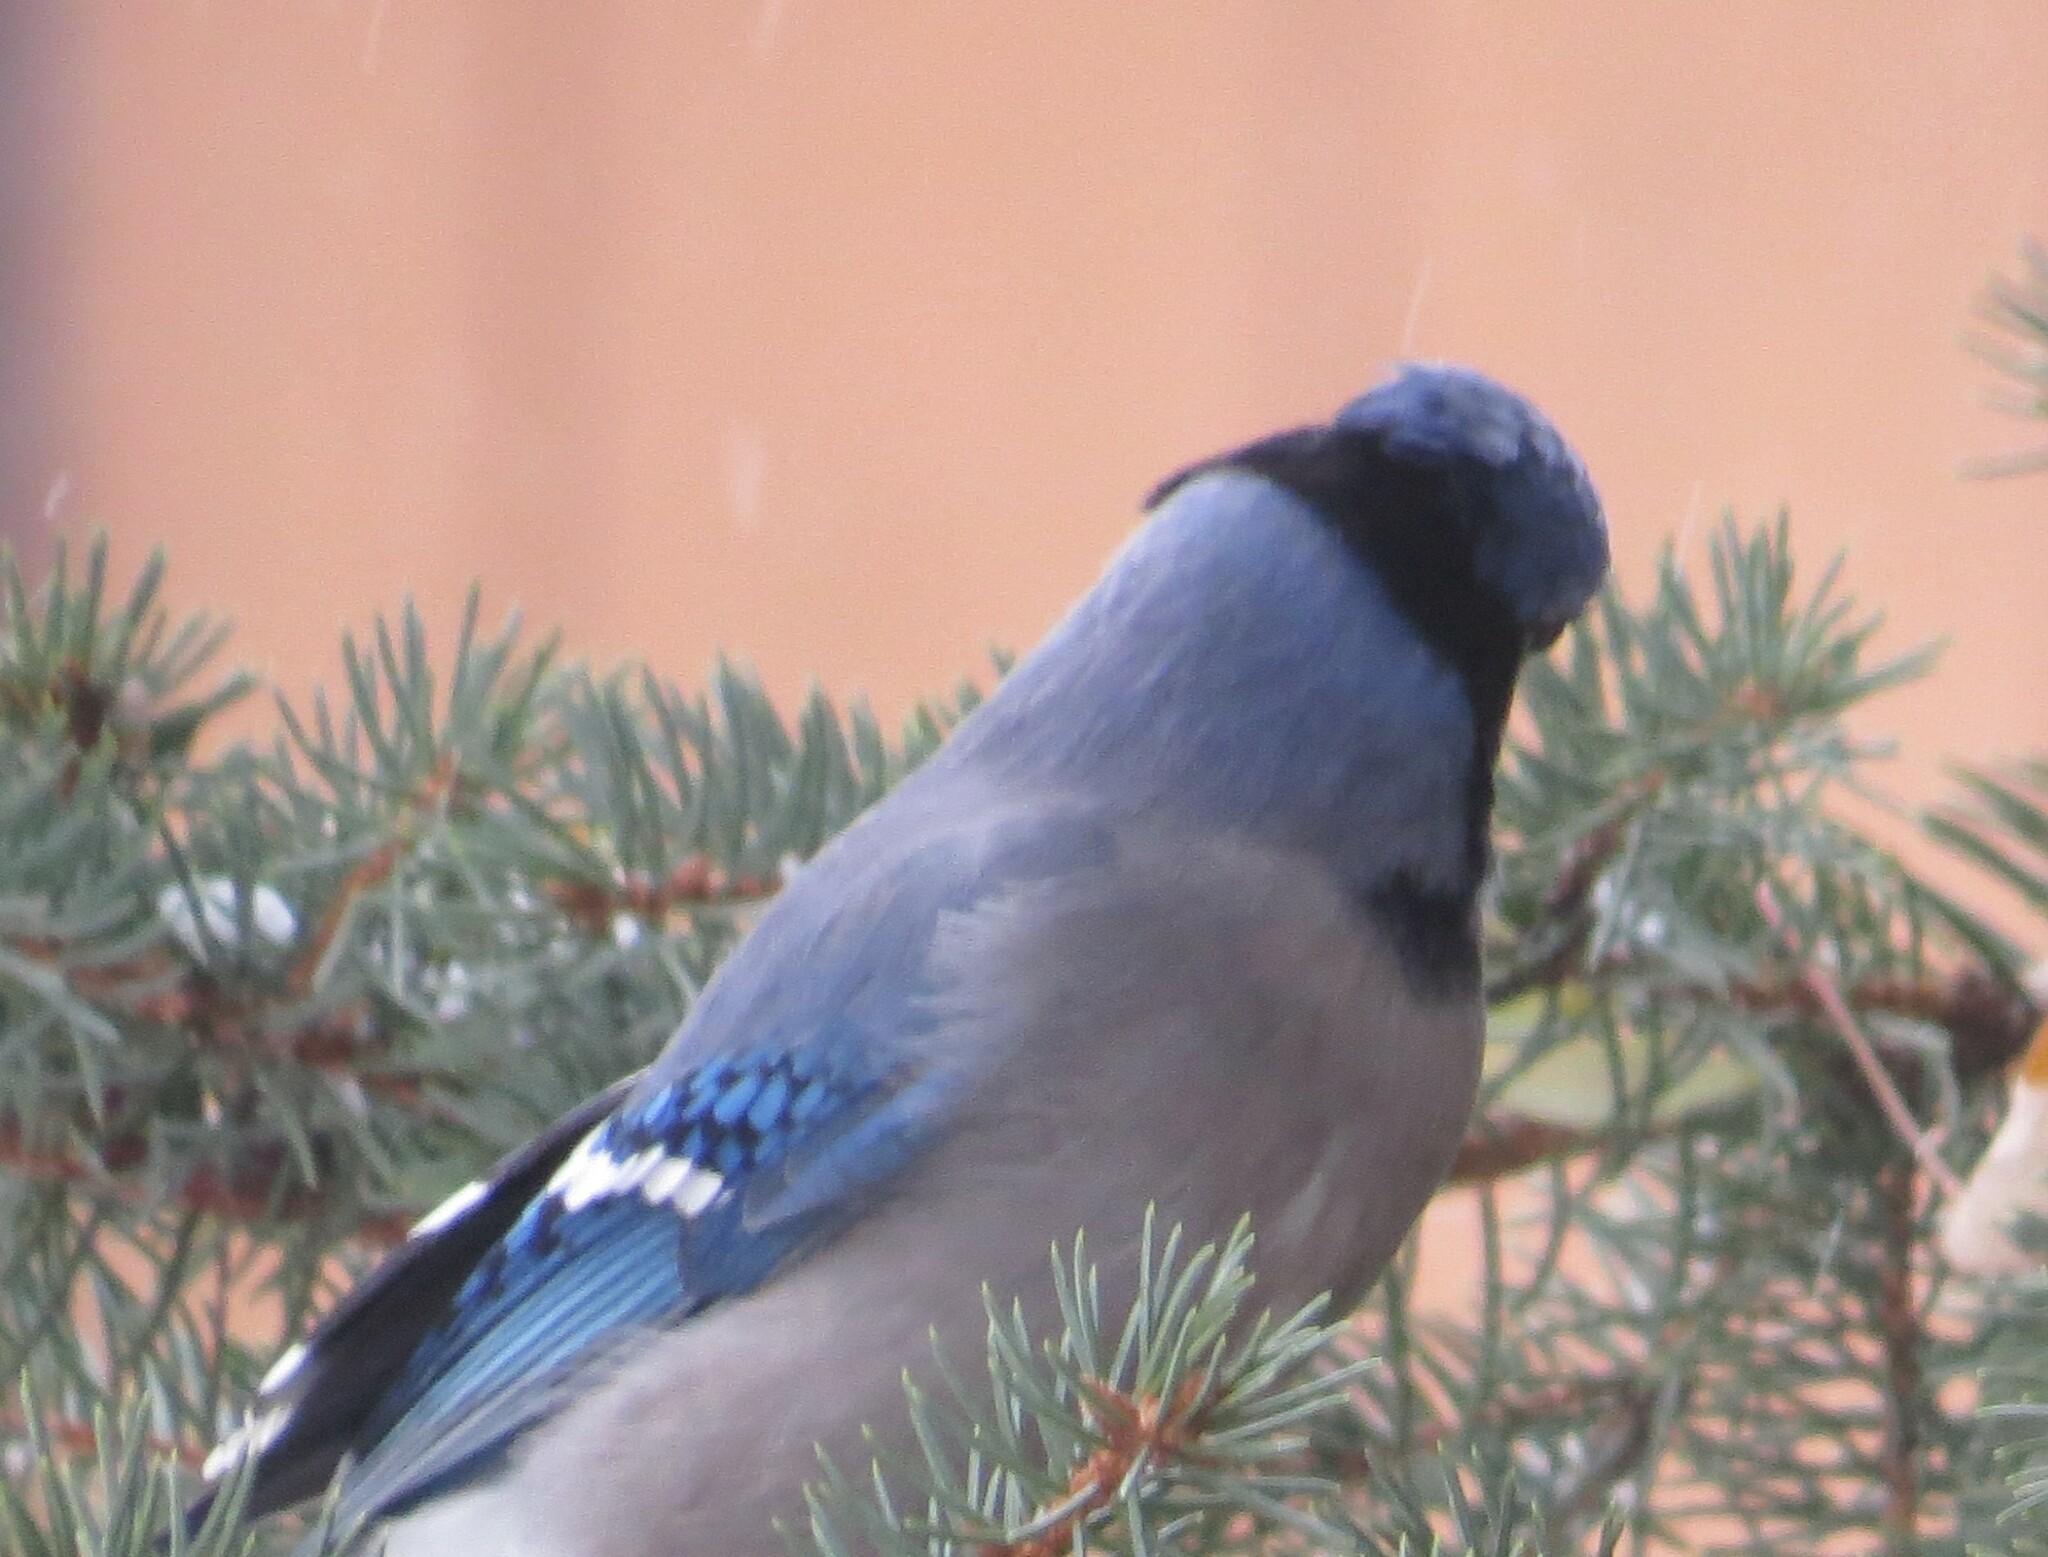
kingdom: Animalia
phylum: Chordata
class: Aves
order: Passeriformes
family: Corvidae
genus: Cyanocitta
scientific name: Cyanocitta cristata
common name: Blue jay
